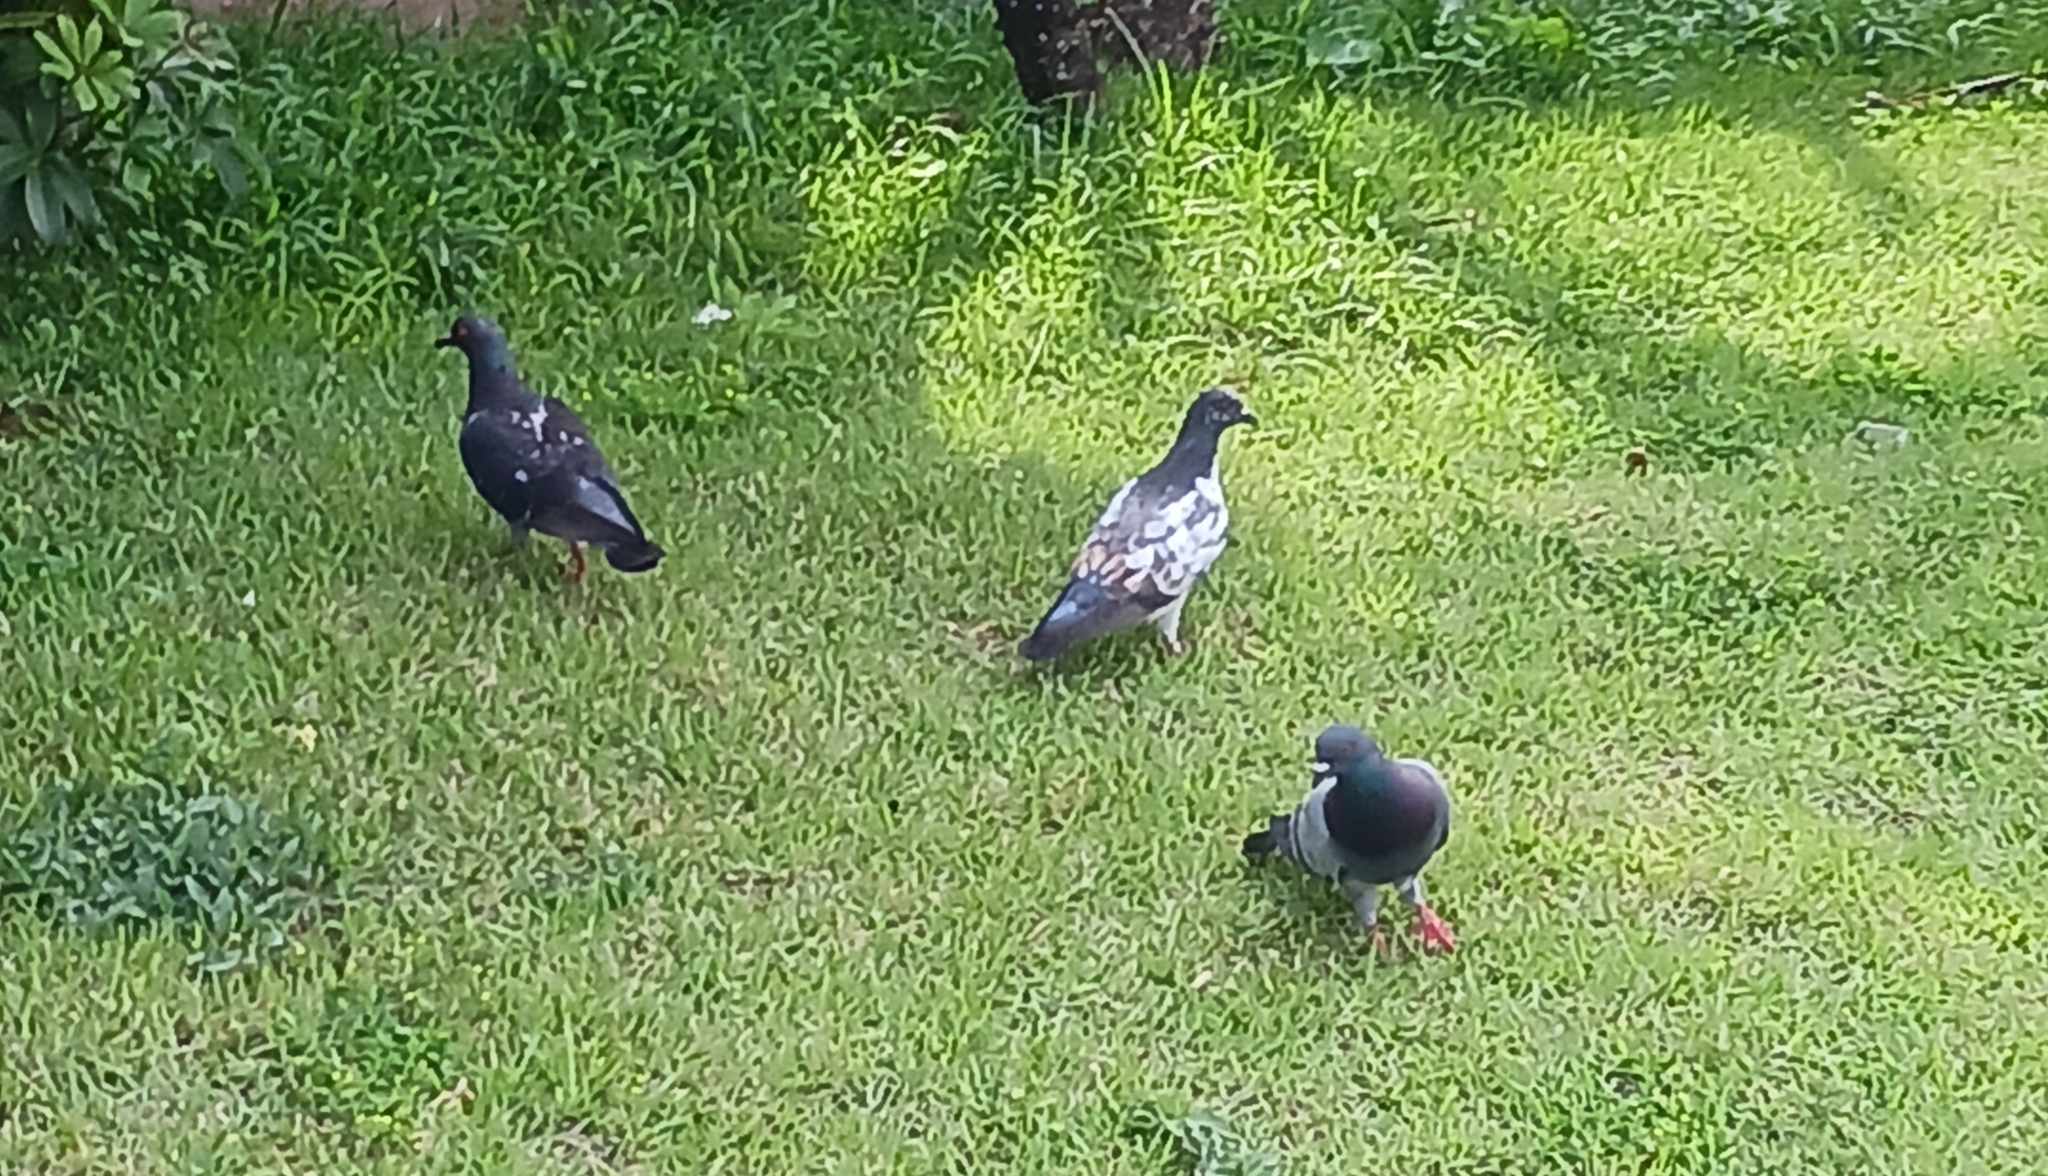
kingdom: Animalia
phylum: Chordata
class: Aves
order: Columbiformes
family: Columbidae
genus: Columba
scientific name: Columba livia
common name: Rock pigeon
